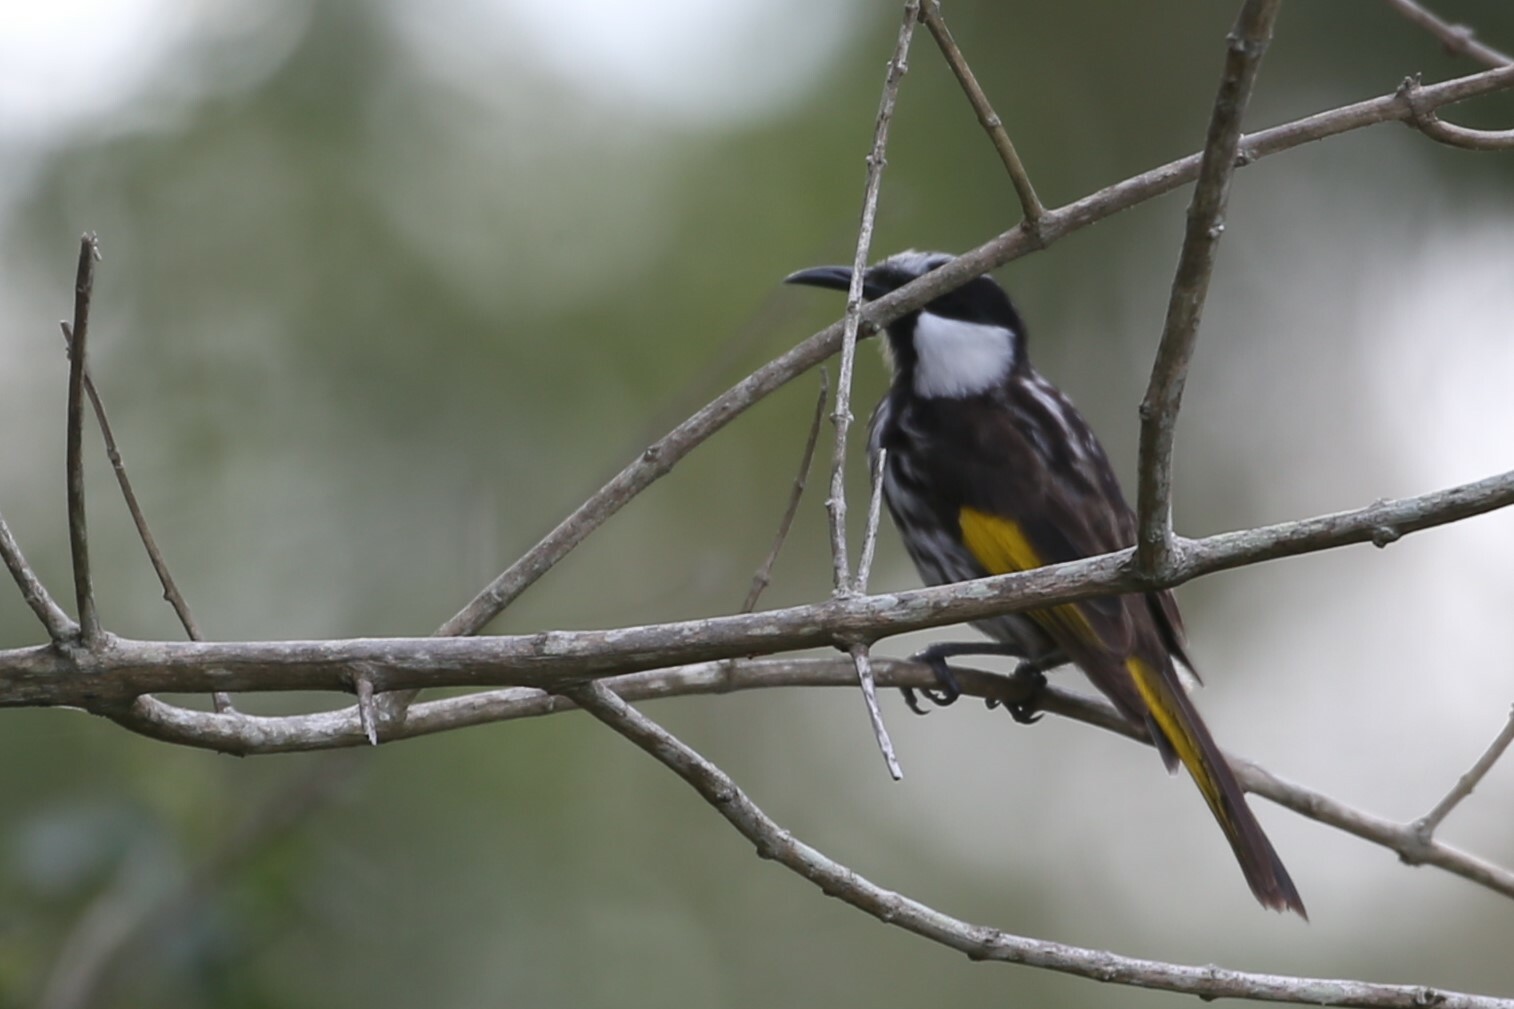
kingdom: Animalia
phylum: Chordata
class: Aves
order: Passeriformes
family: Meliphagidae
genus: Phylidonyris
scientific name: Phylidonyris niger
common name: White-cheeked honeyeater
